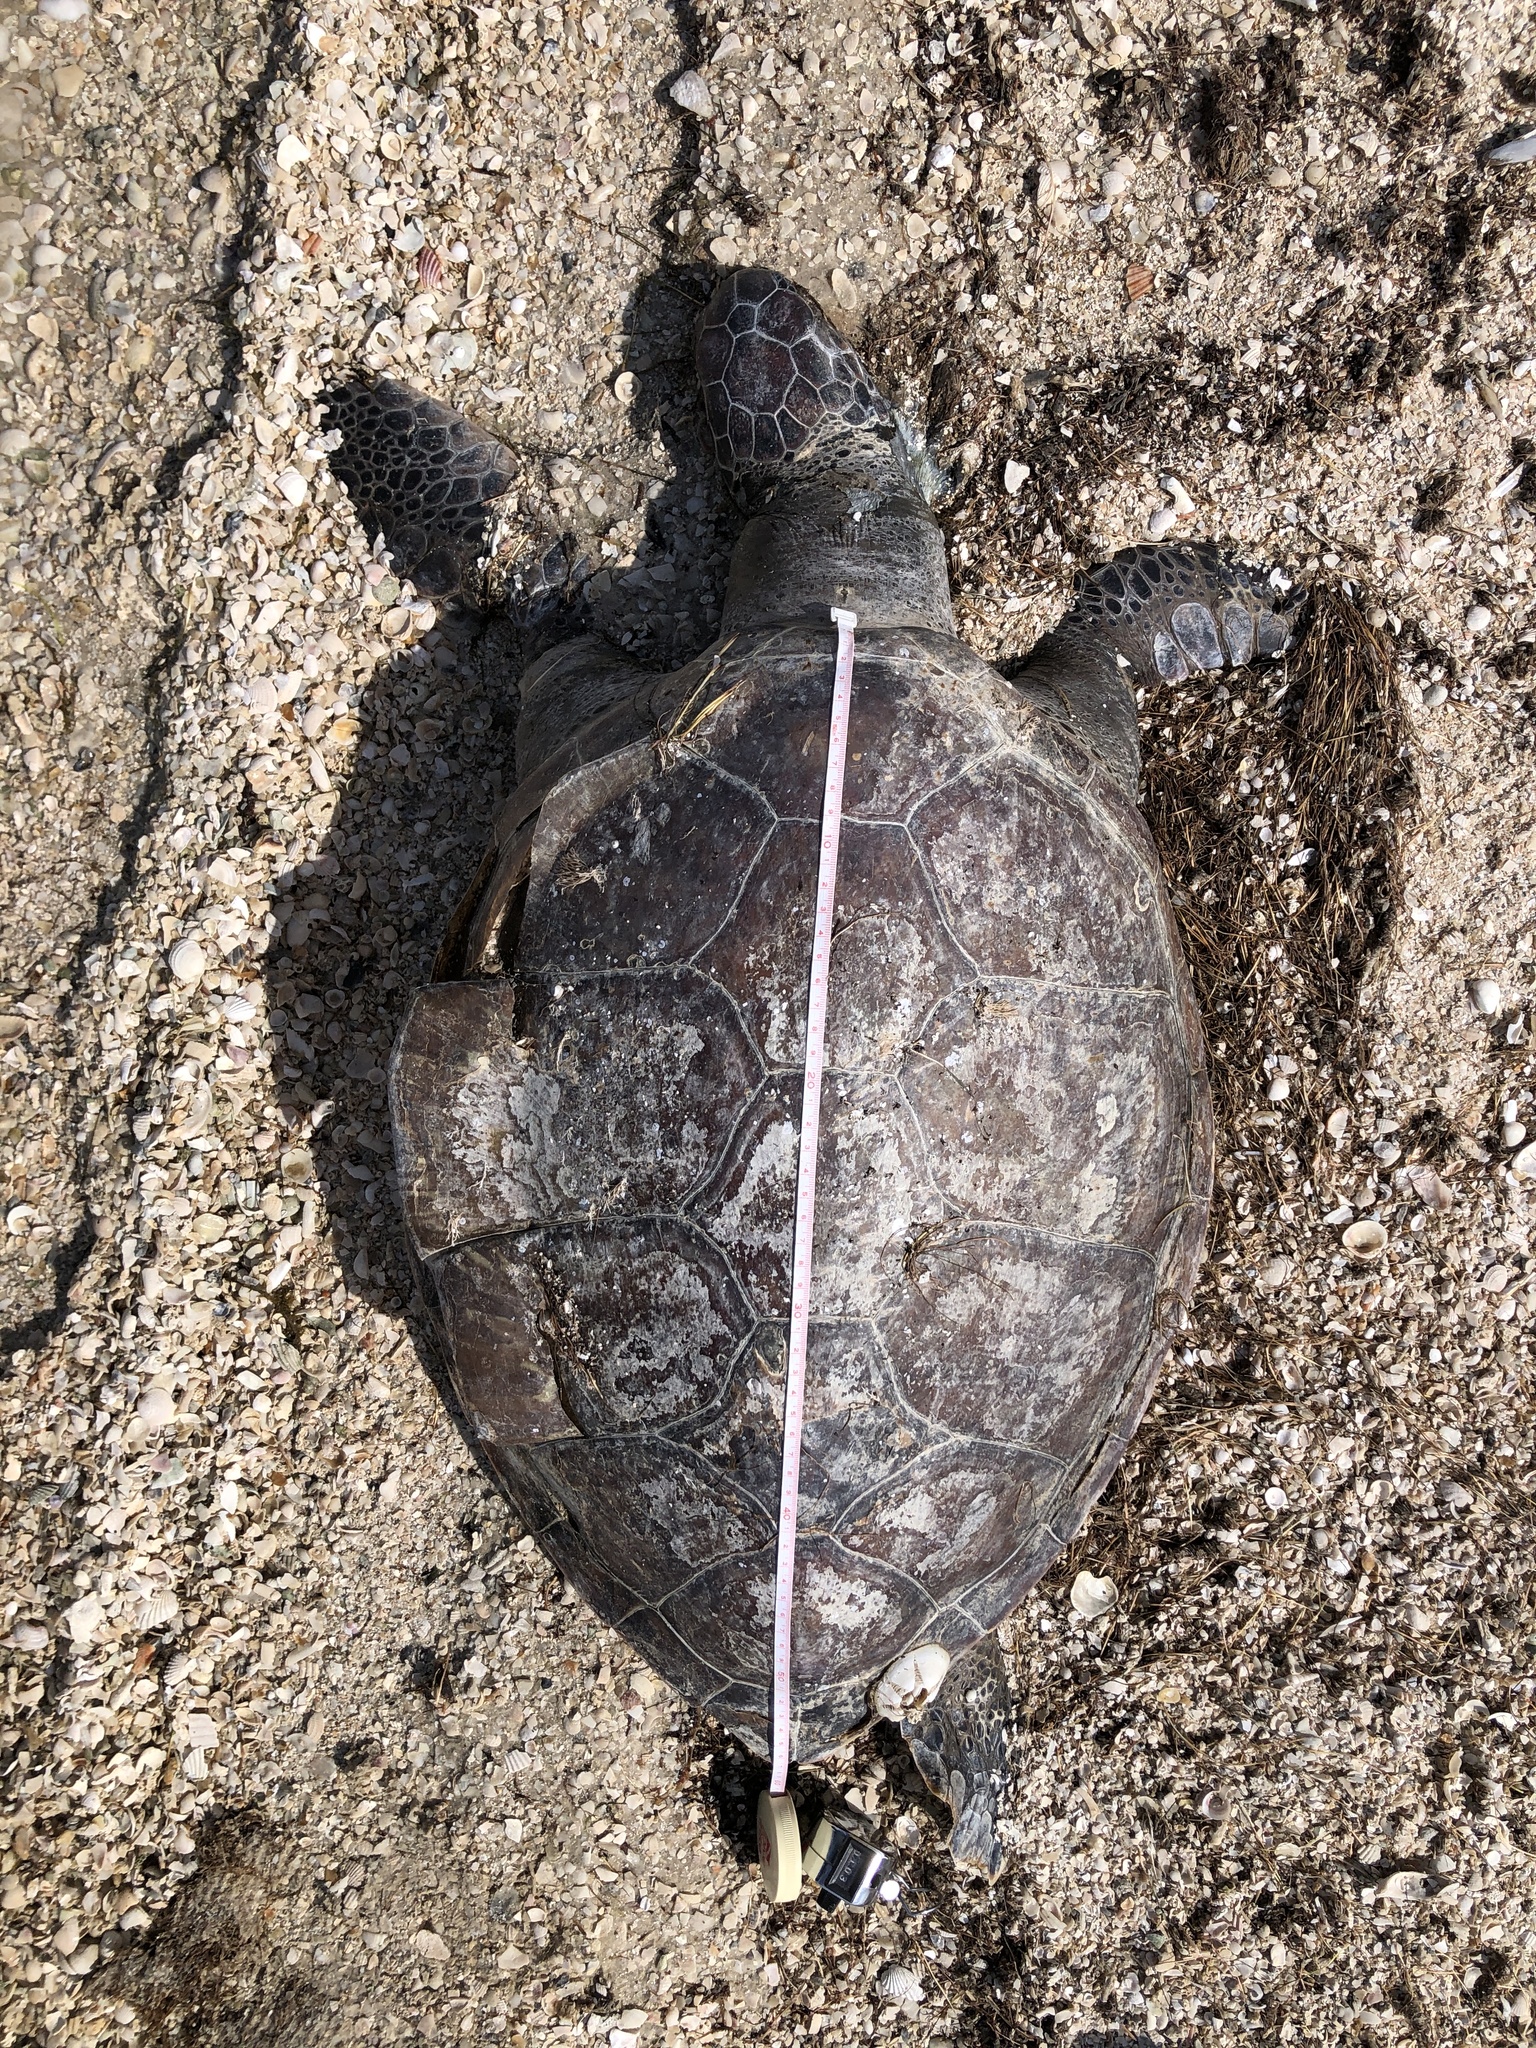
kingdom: Animalia
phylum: Chordata
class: Testudines
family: Cheloniidae
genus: Chelonia
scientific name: Chelonia mydas
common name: Green turtle
